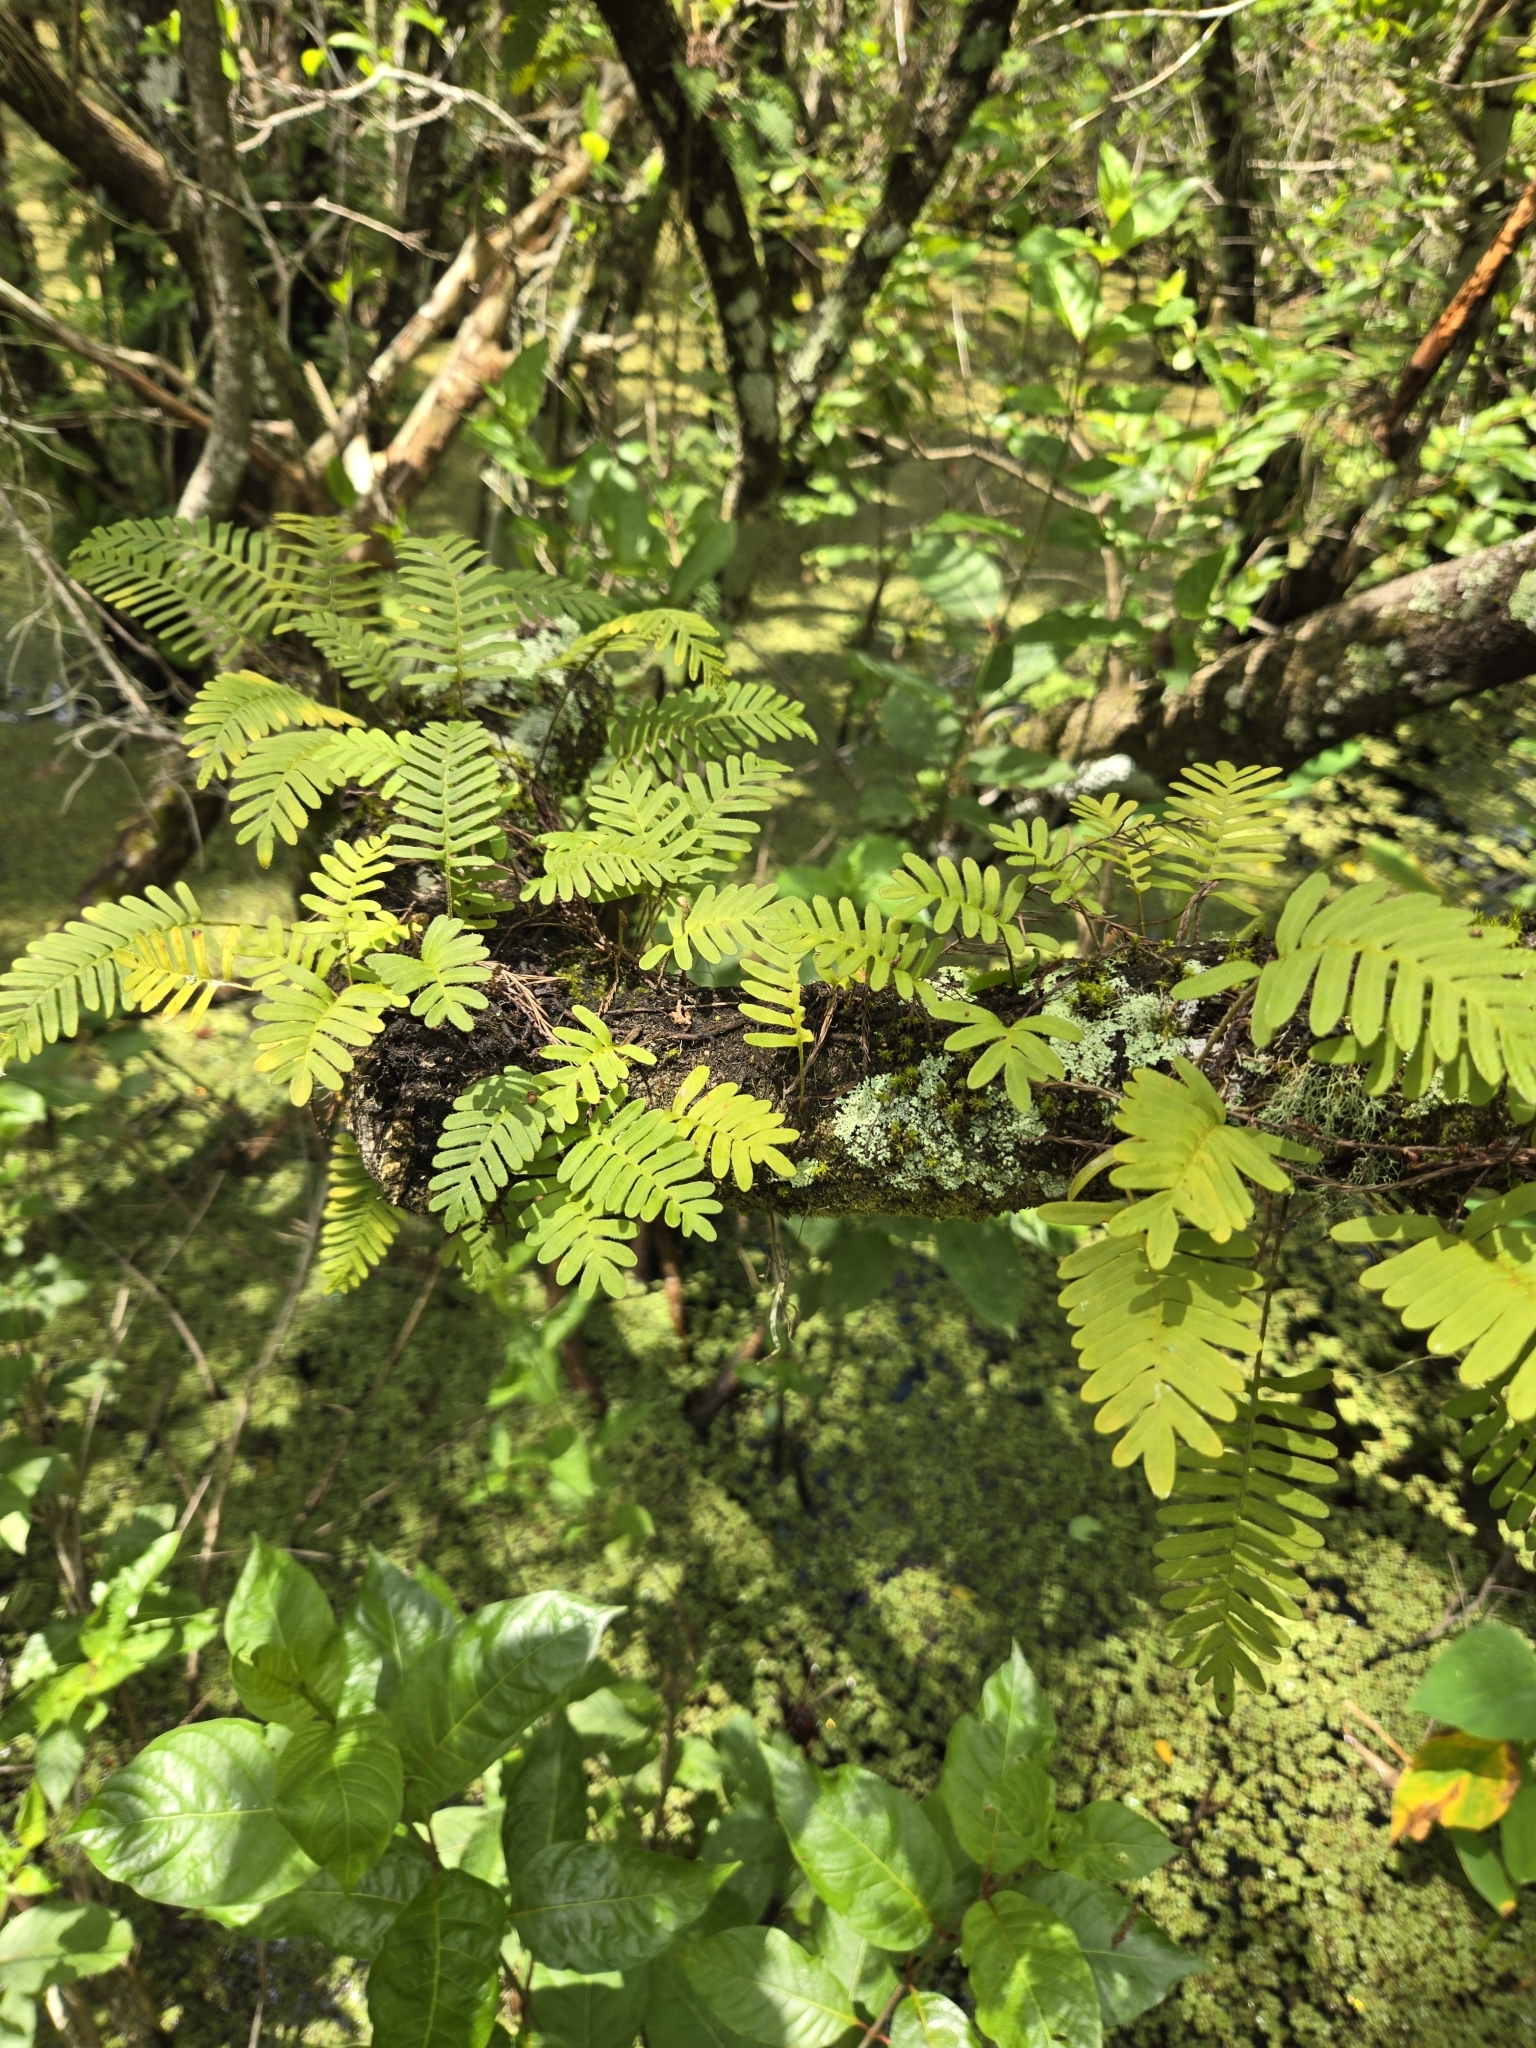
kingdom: Plantae
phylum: Tracheophyta
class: Polypodiopsida
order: Polypodiales
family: Polypodiaceae
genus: Pleopeltis
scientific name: Pleopeltis michauxiana
